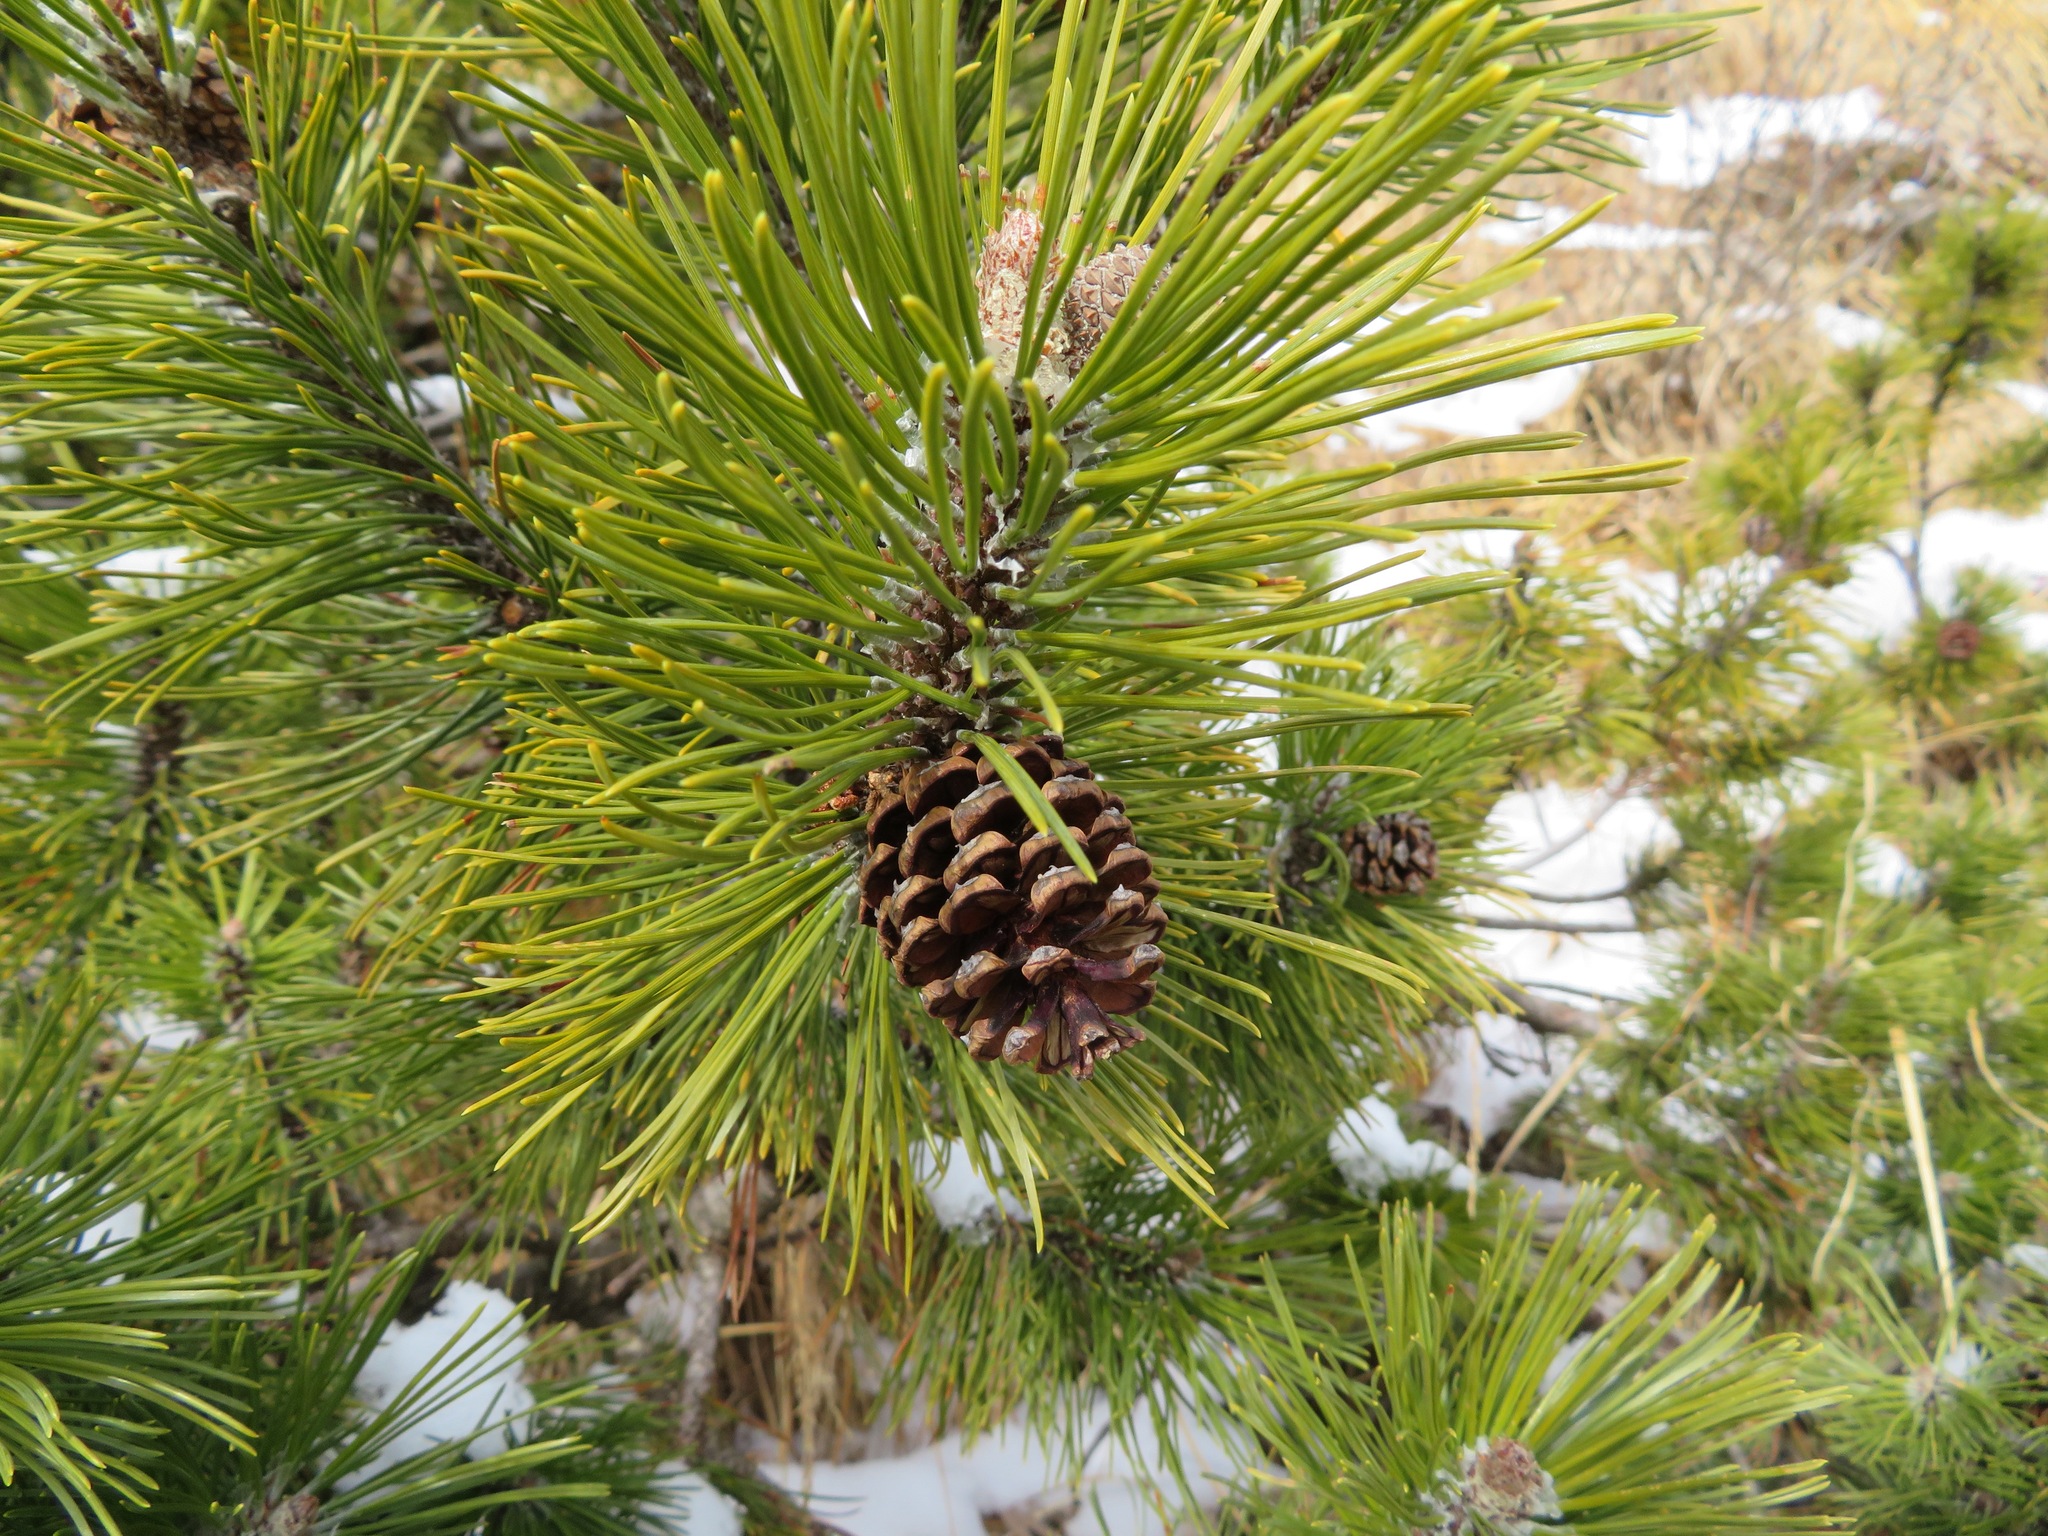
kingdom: Plantae
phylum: Tracheophyta
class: Pinopsida
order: Pinales
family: Pinaceae
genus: Pinus
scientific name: Pinus mugo
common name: Mugo pine
